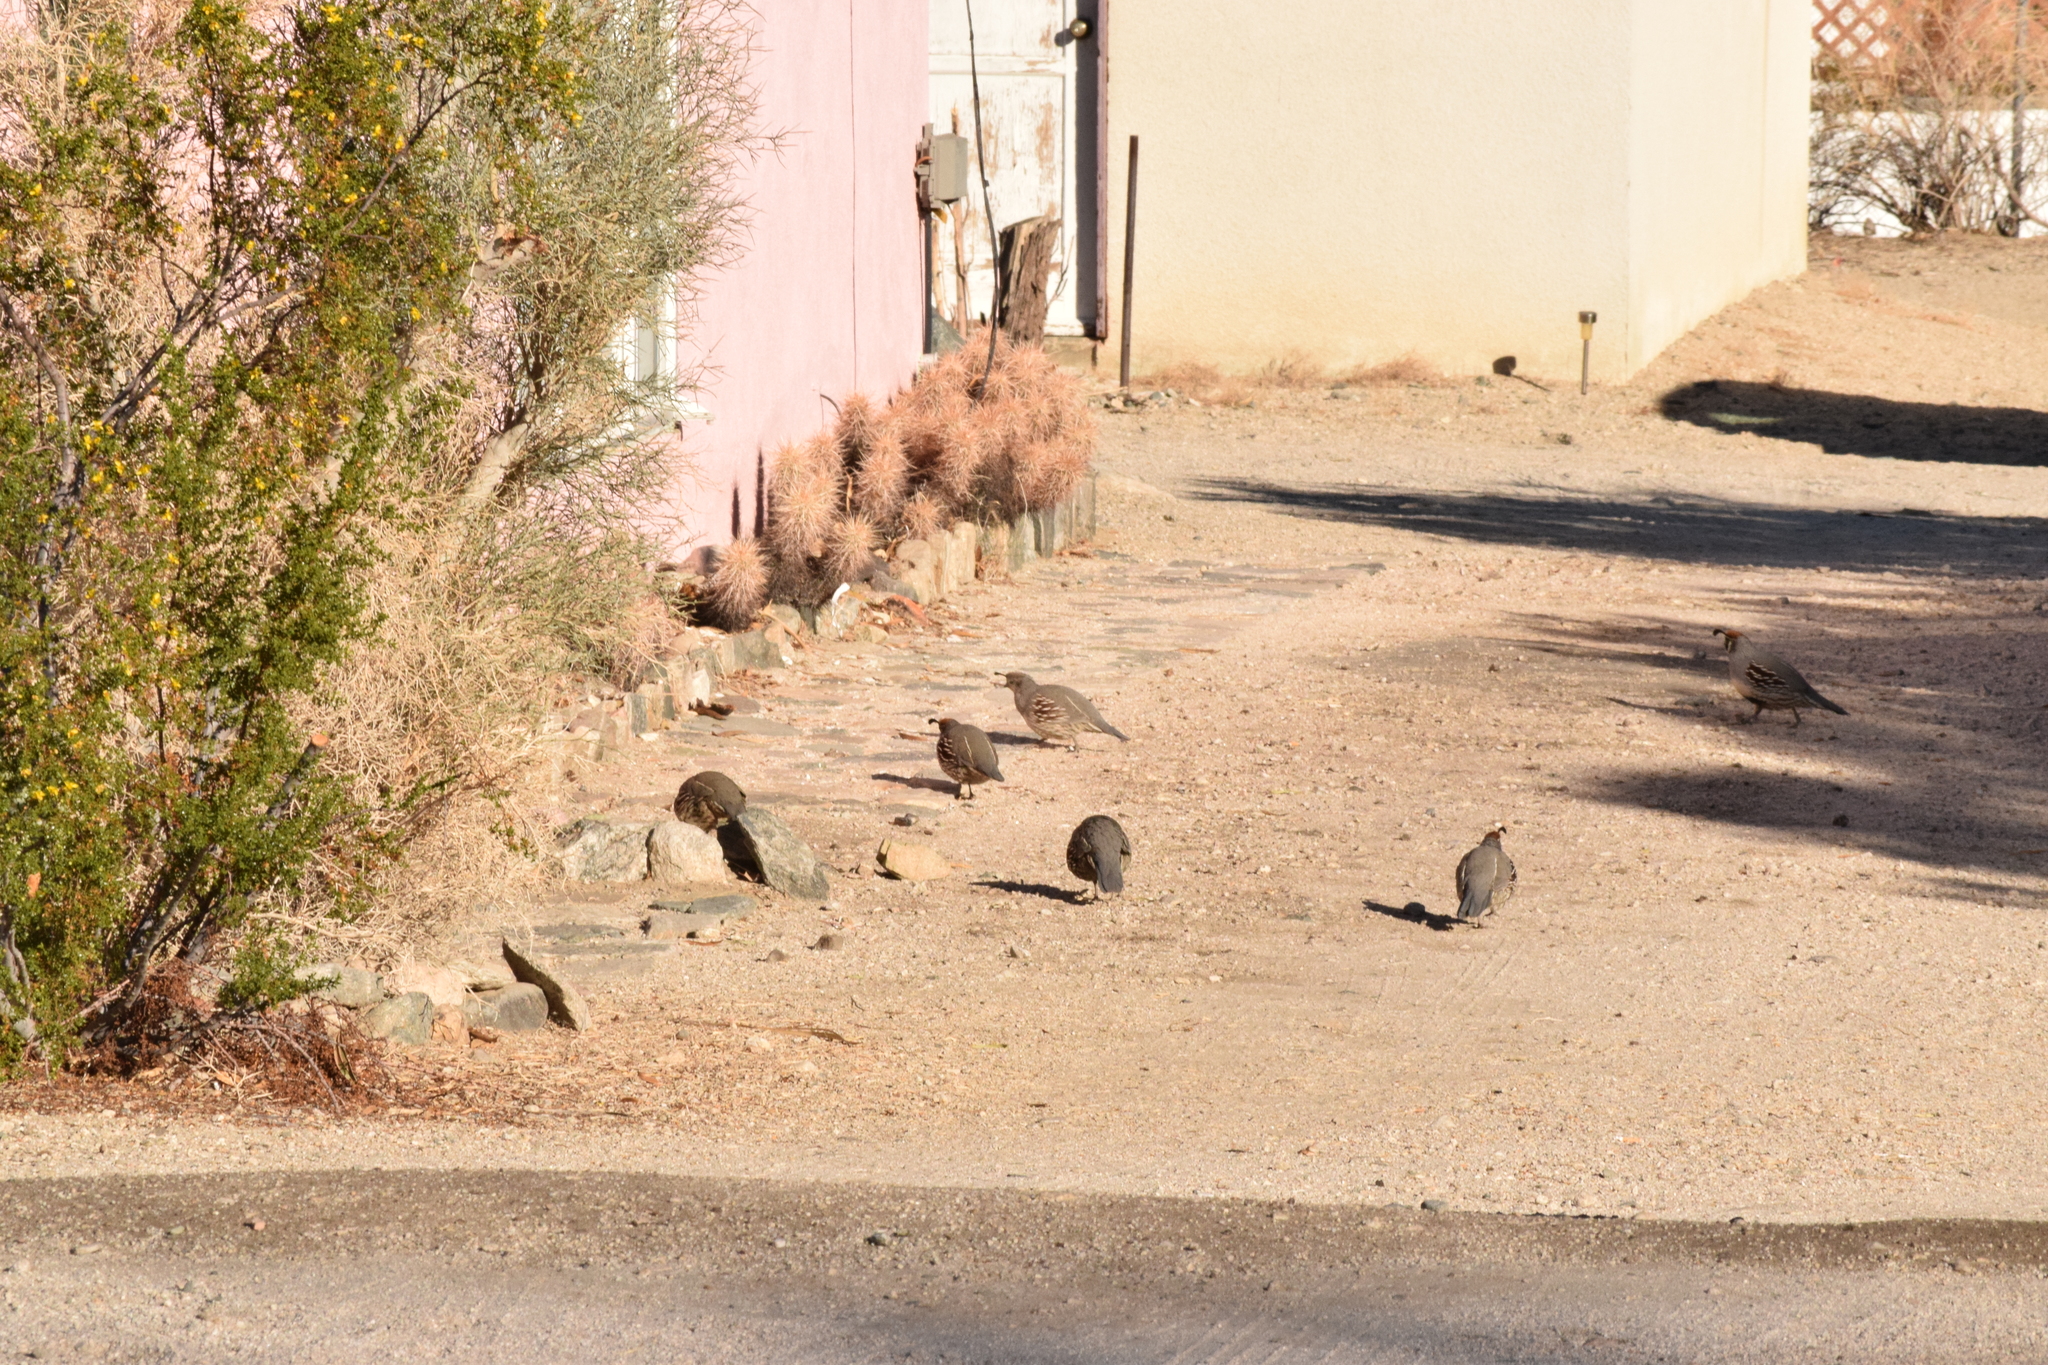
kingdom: Animalia
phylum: Chordata
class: Aves
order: Galliformes
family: Odontophoridae
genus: Callipepla
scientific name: Callipepla gambelii
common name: Gambel's quail
